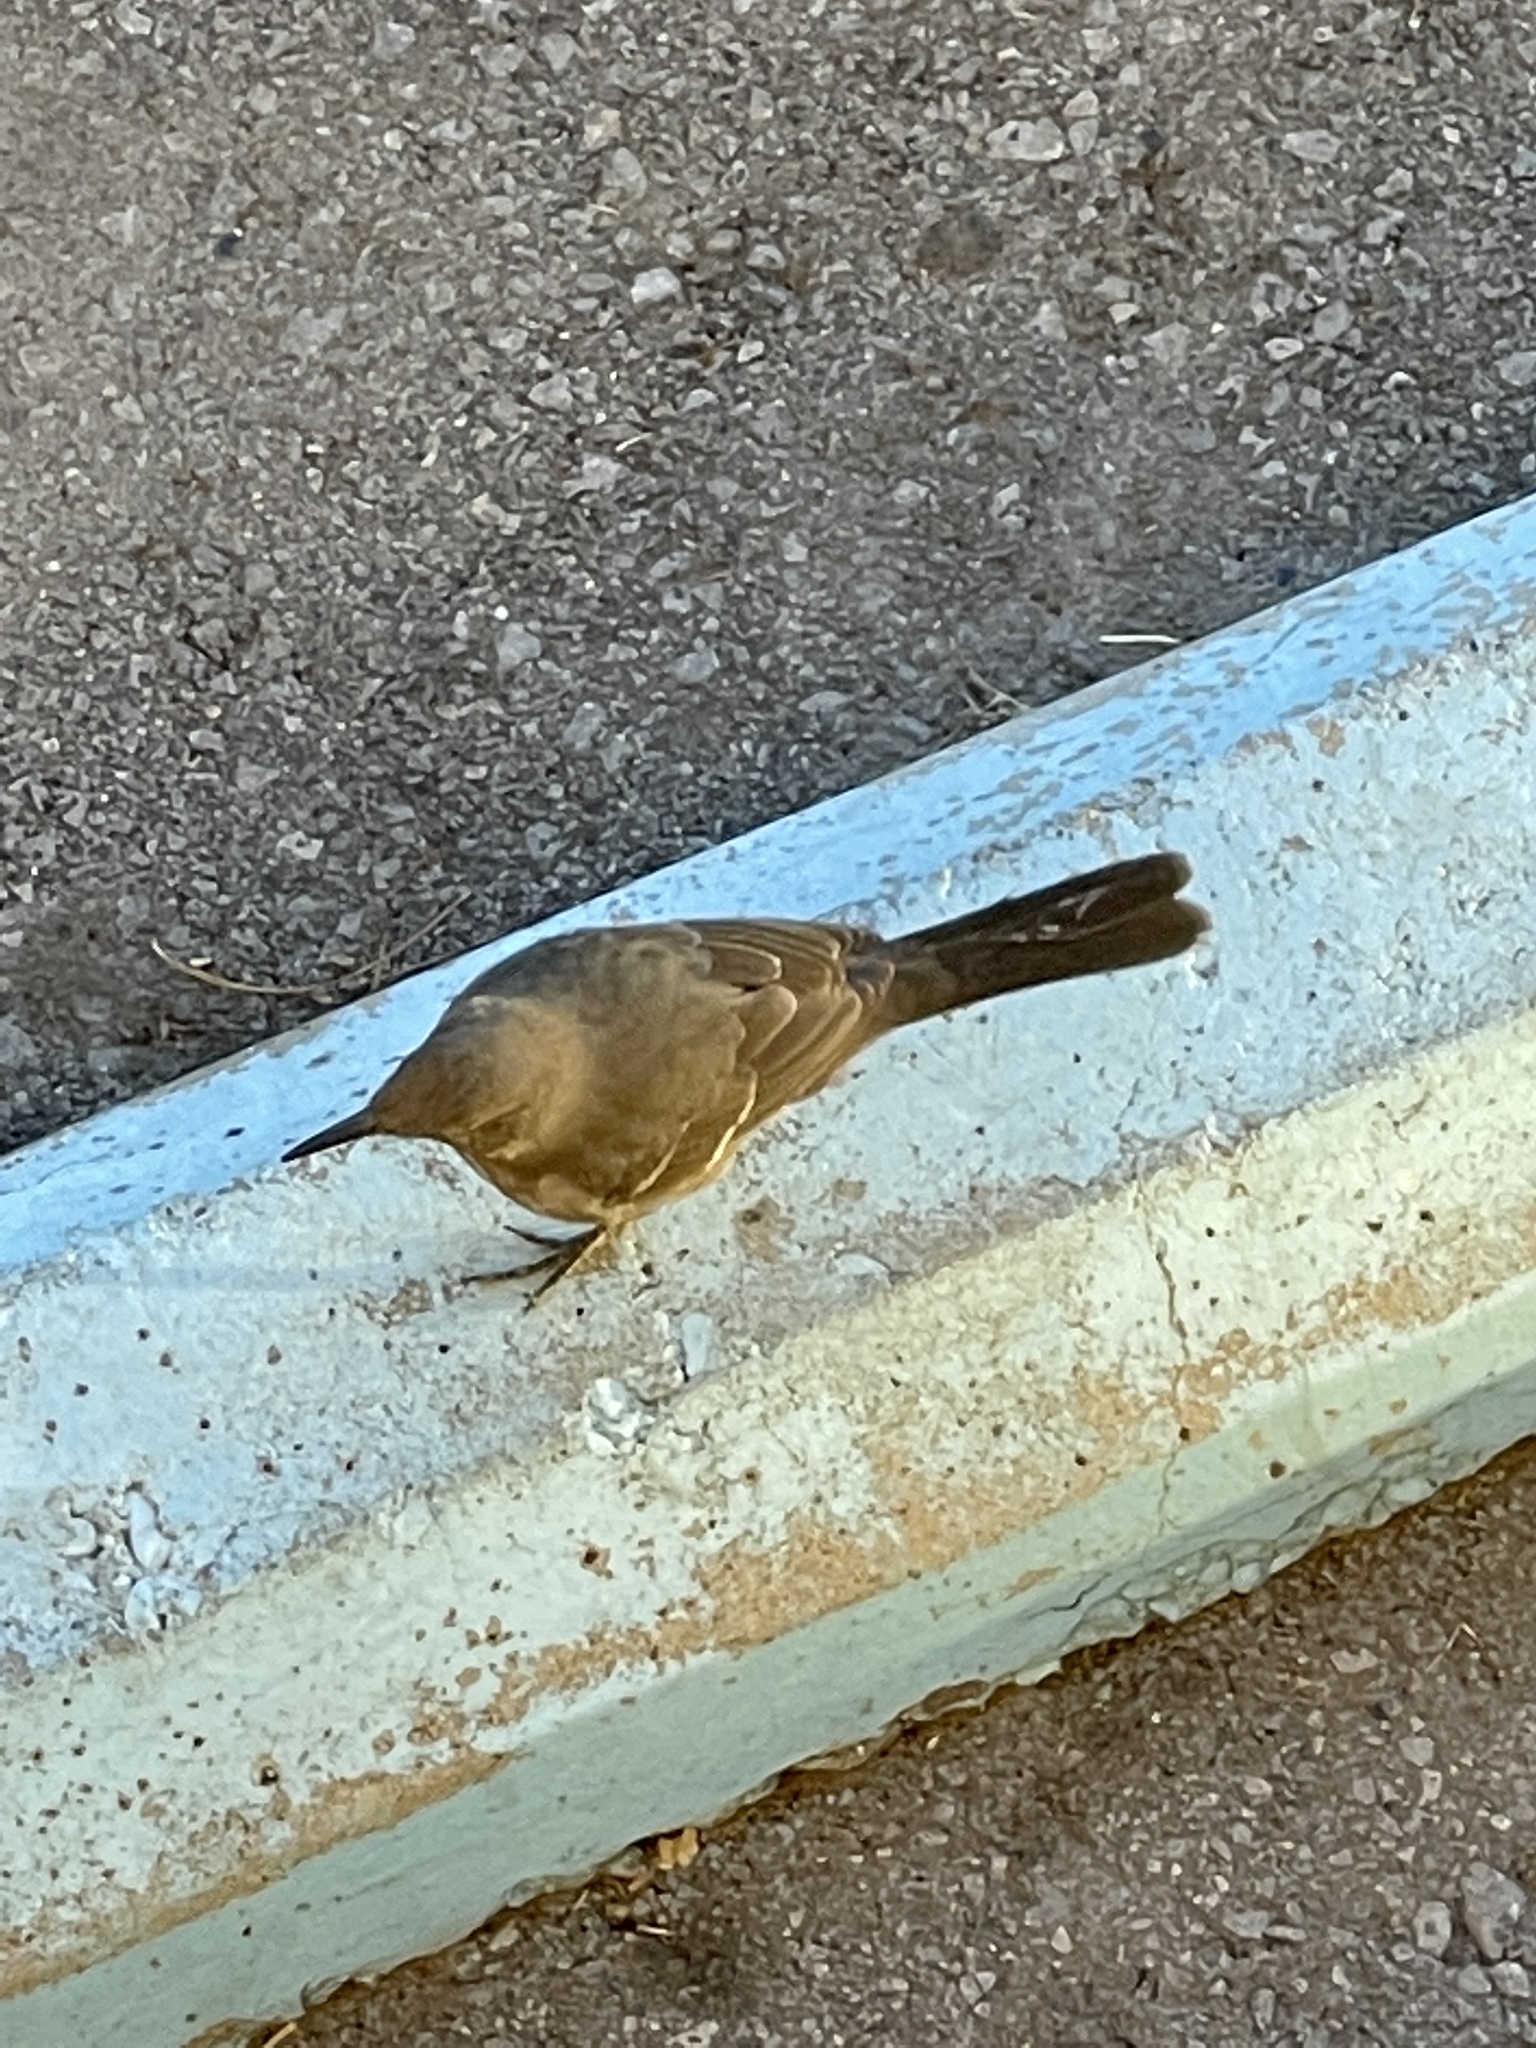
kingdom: Animalia
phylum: Chordata
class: Aves
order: Passeriformes
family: Mimidae
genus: Toxostoma
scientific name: Toxostoma curvirostre
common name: Curve-billed thrasher
